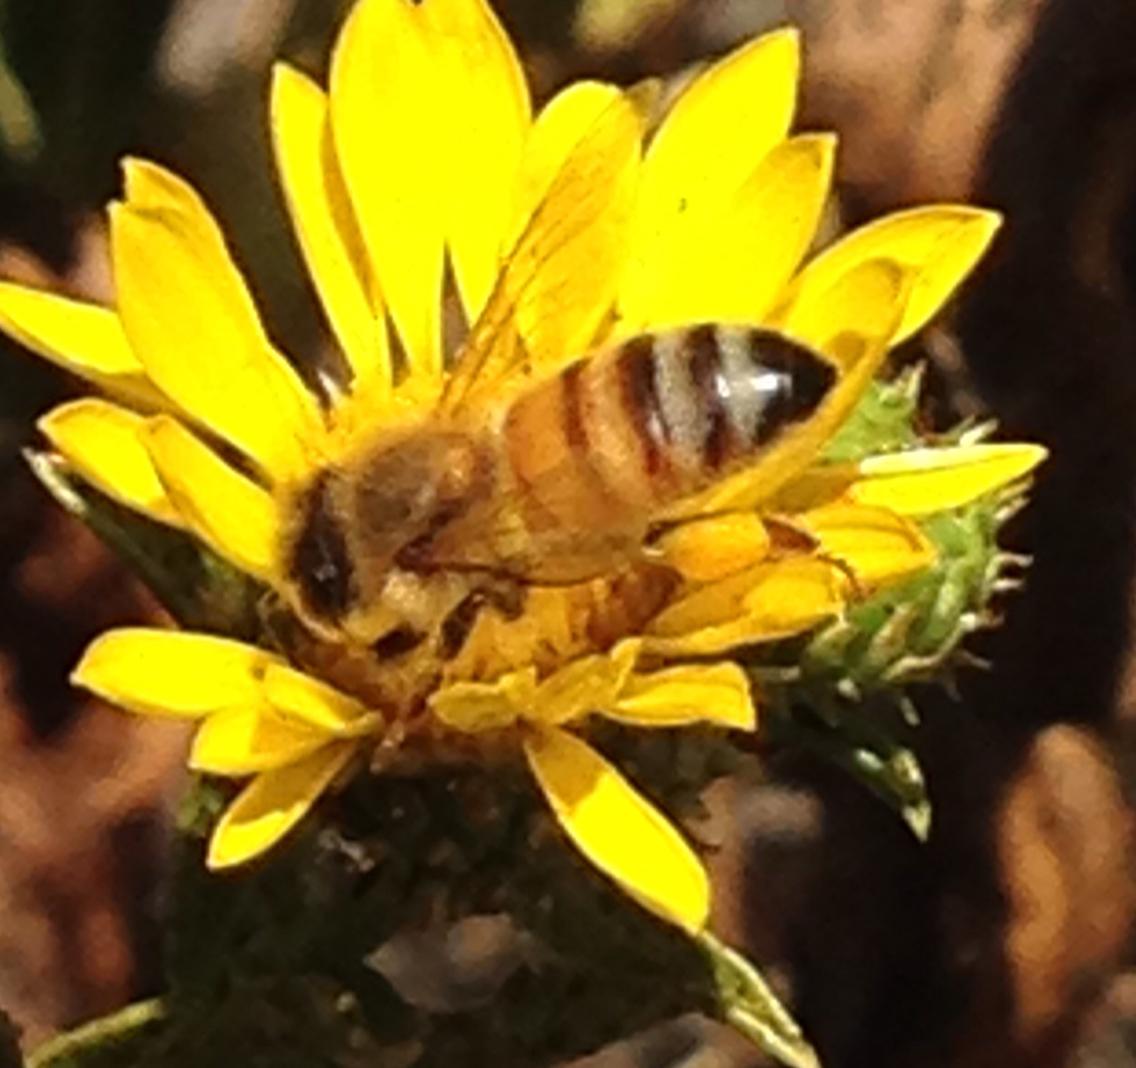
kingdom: Animalia
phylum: Arthropoda
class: Insecta
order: Hymenoptera
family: Apidae
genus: Apis
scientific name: Apis mellifera
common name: Honey bee
